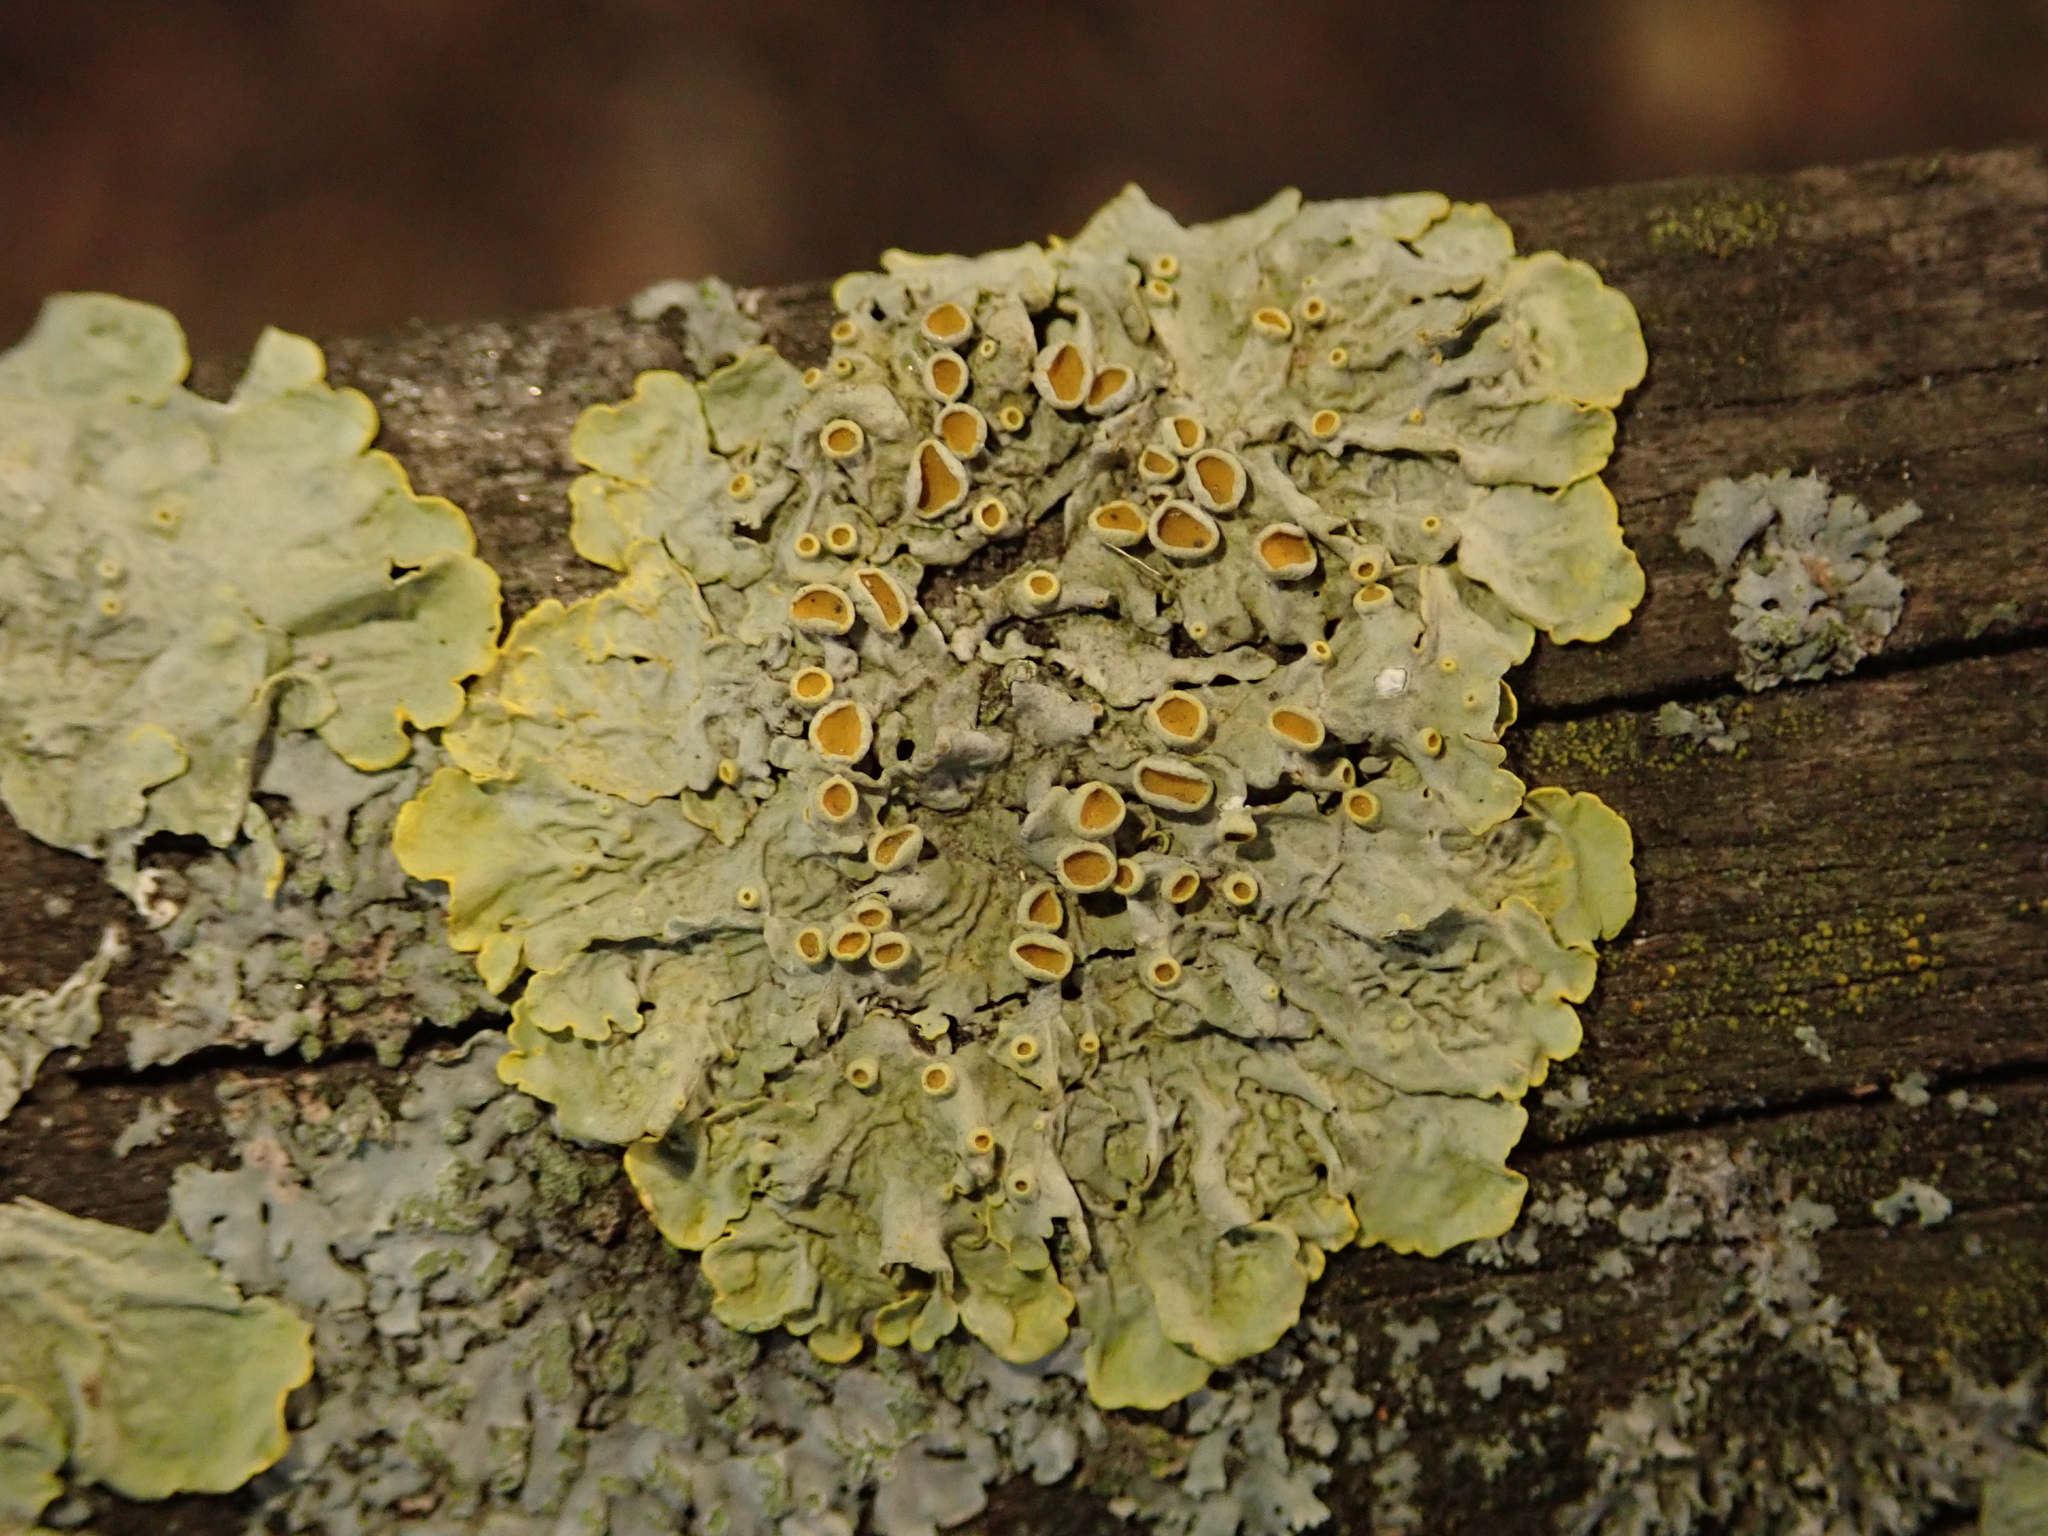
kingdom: Fungi
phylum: Ascomycota
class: Lecanoromycetes
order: Teloschistales
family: Teloschistaceae
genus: Xanthoria
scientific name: Xanthoria parietina
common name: Common orange lichen
